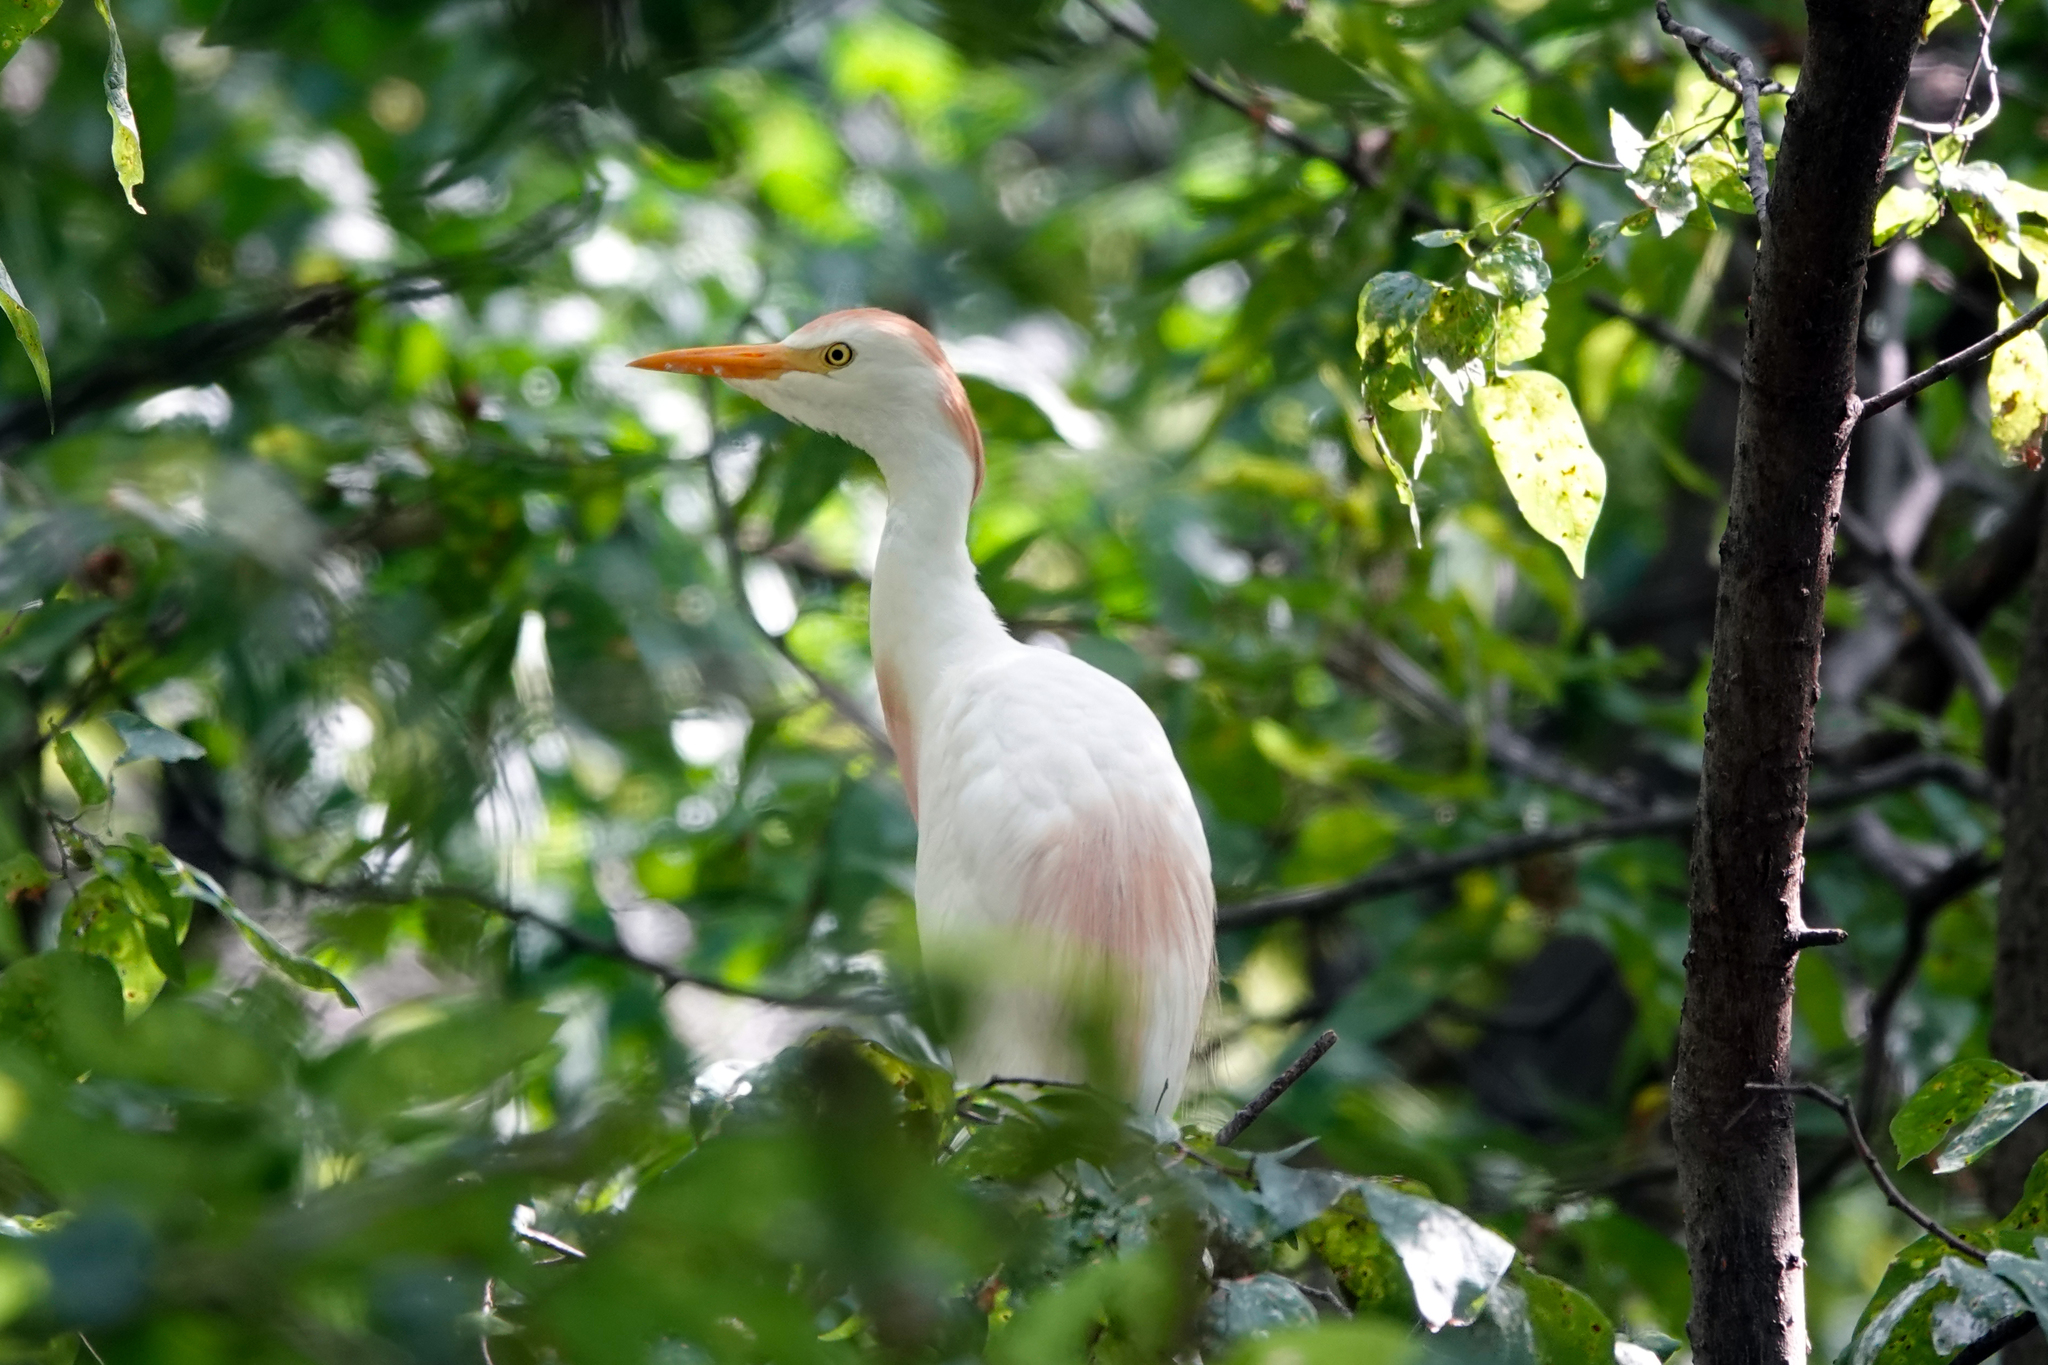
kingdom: Animalia
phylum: Chordata
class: Aves
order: Pelecaniformes
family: Ardeidae
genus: Bubulcus
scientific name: Bubulcus ibis
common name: Cattle egret
